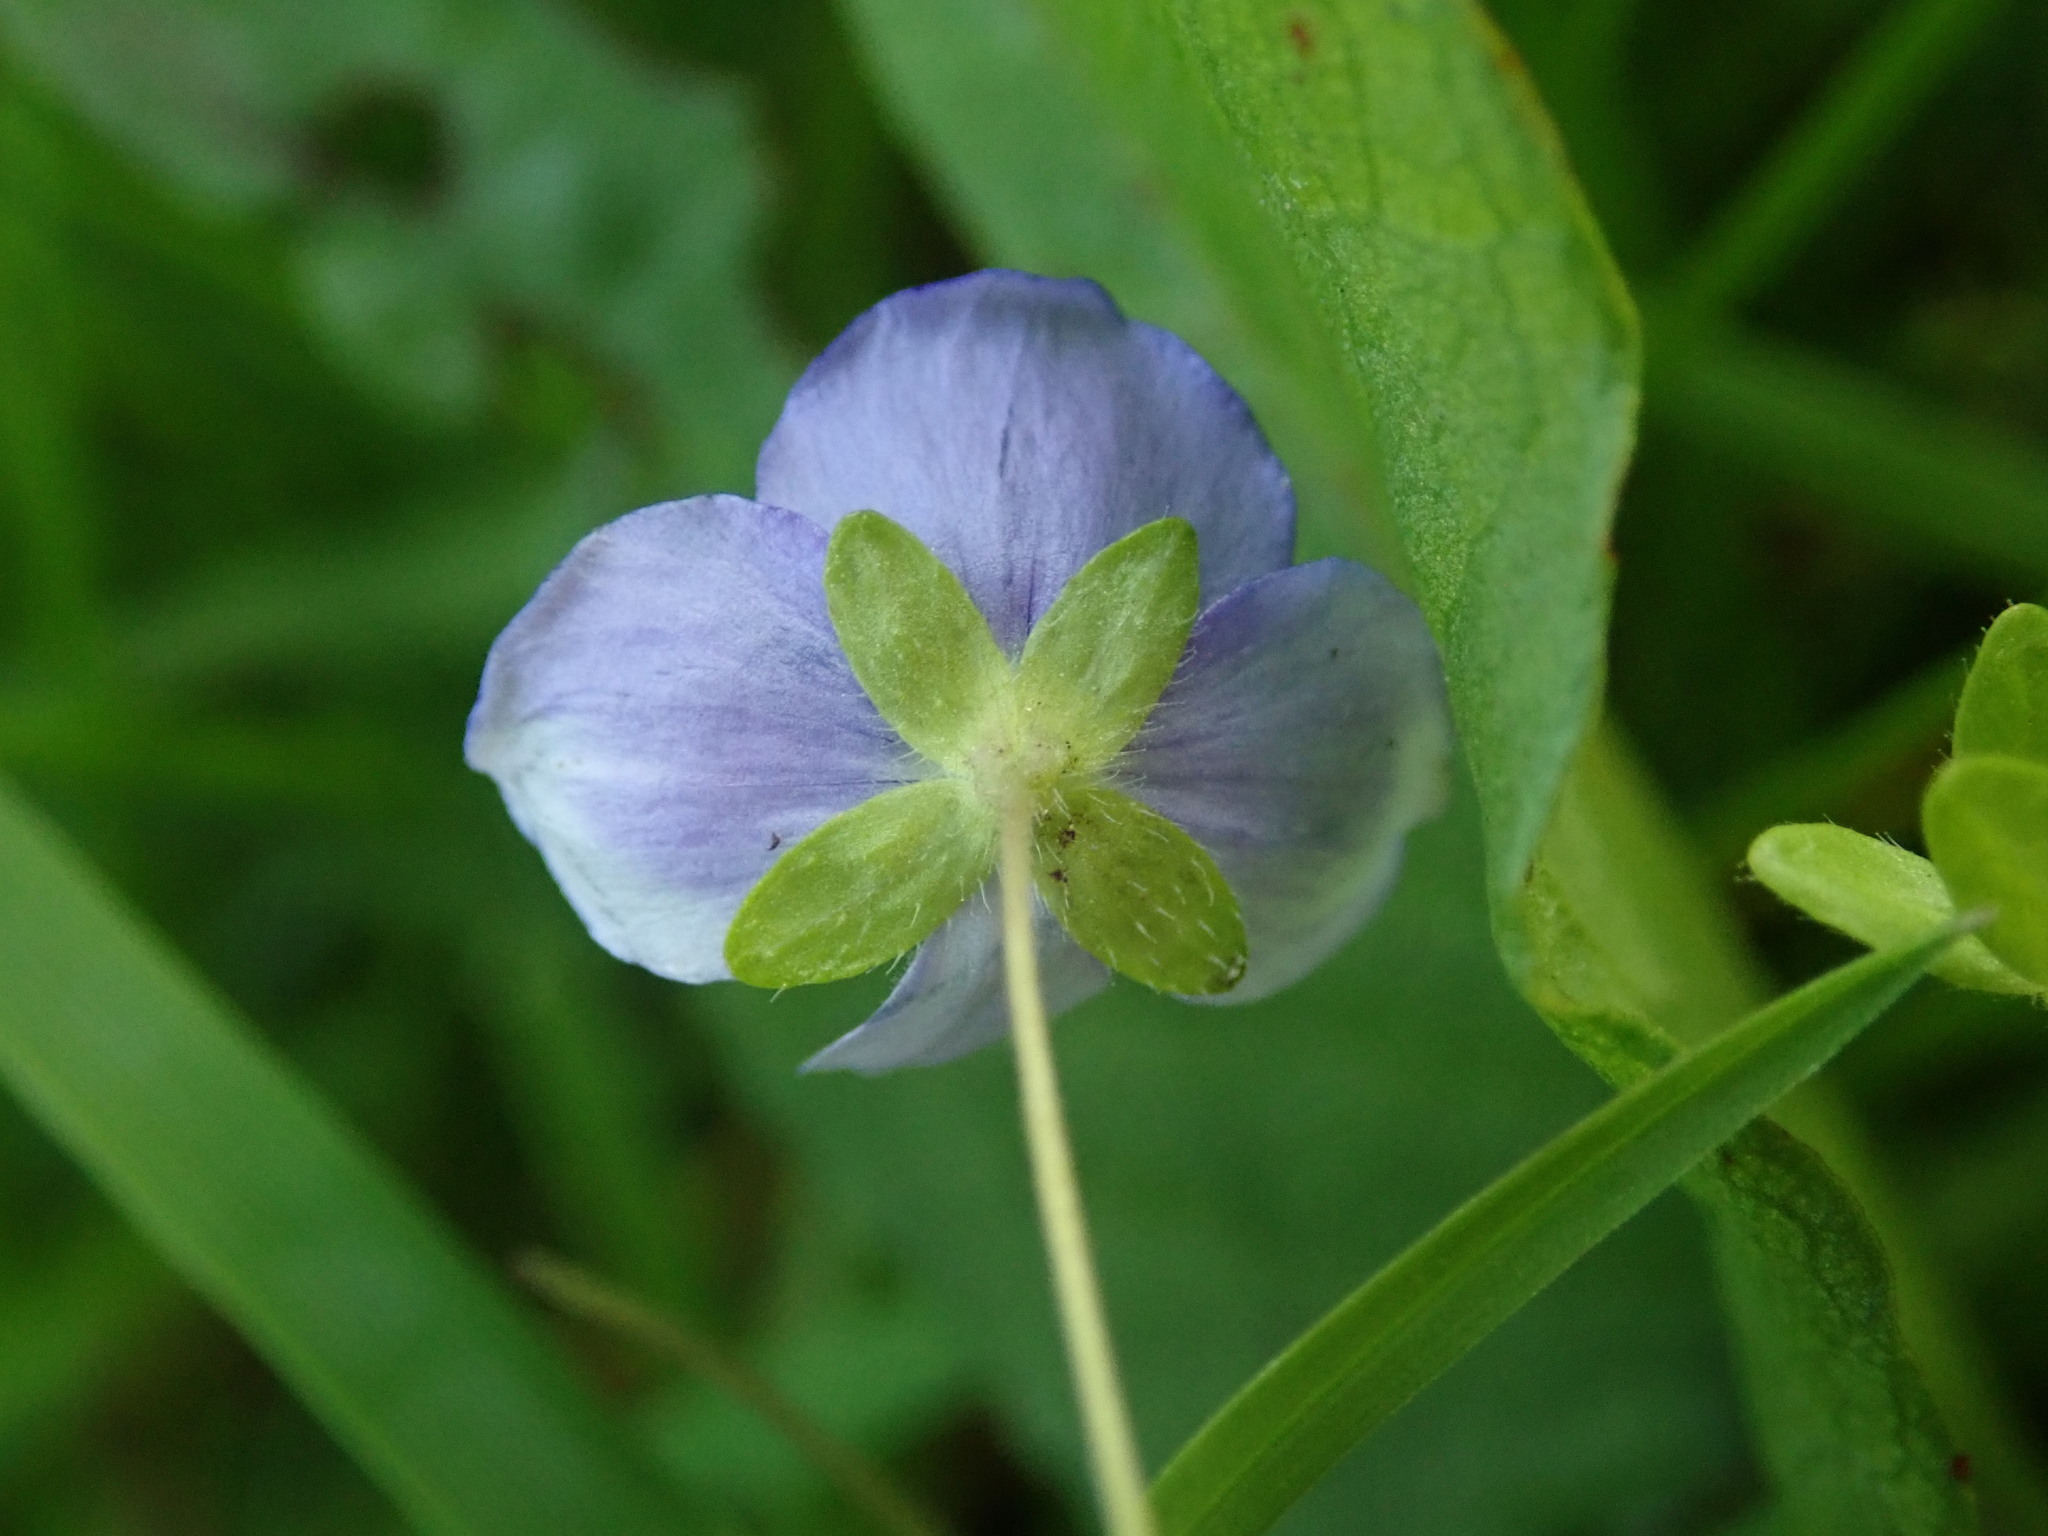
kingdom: Plantae
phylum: Tracheophyta
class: Magnoliopsida
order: Lamiales
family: Plantaginaceae
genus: Veronica
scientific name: Veronica filiformis
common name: Slender speedwell
